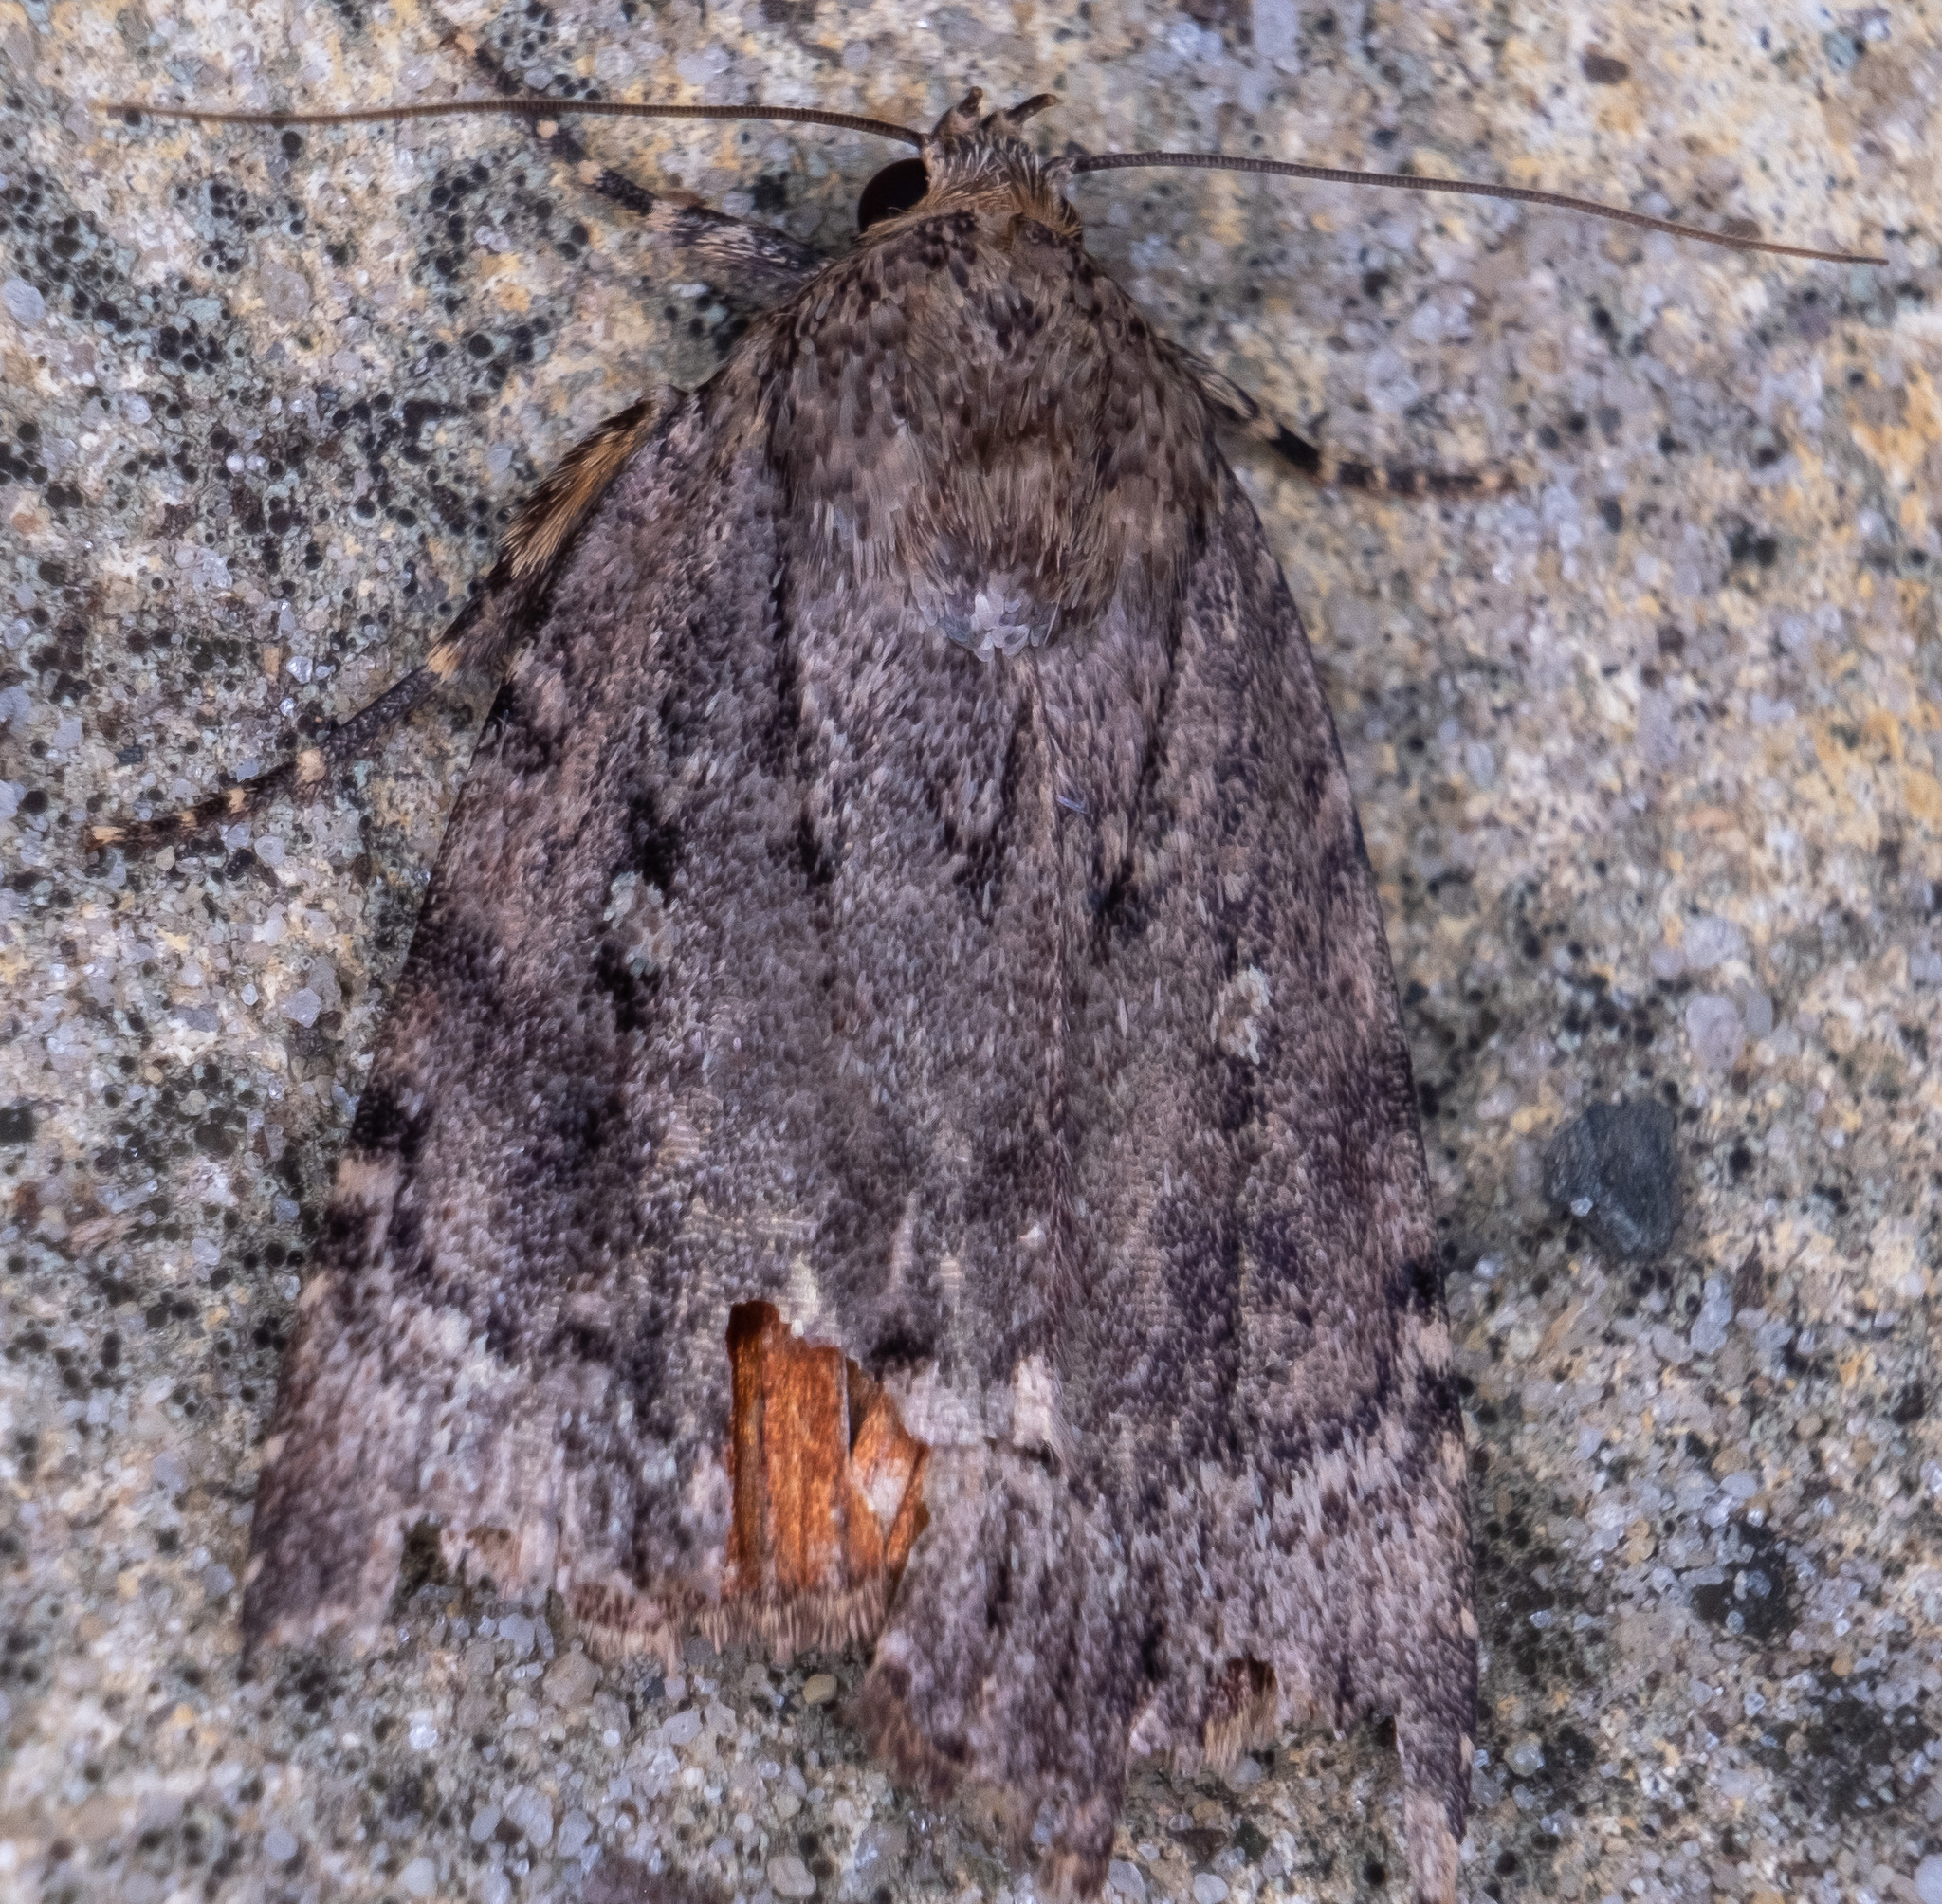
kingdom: Animalia
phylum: Arthropoda
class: Insecta
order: Lepidoptera
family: Noctuidae
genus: Amphipyra
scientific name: Amphipyra pyramidoides
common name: American copper underwing
